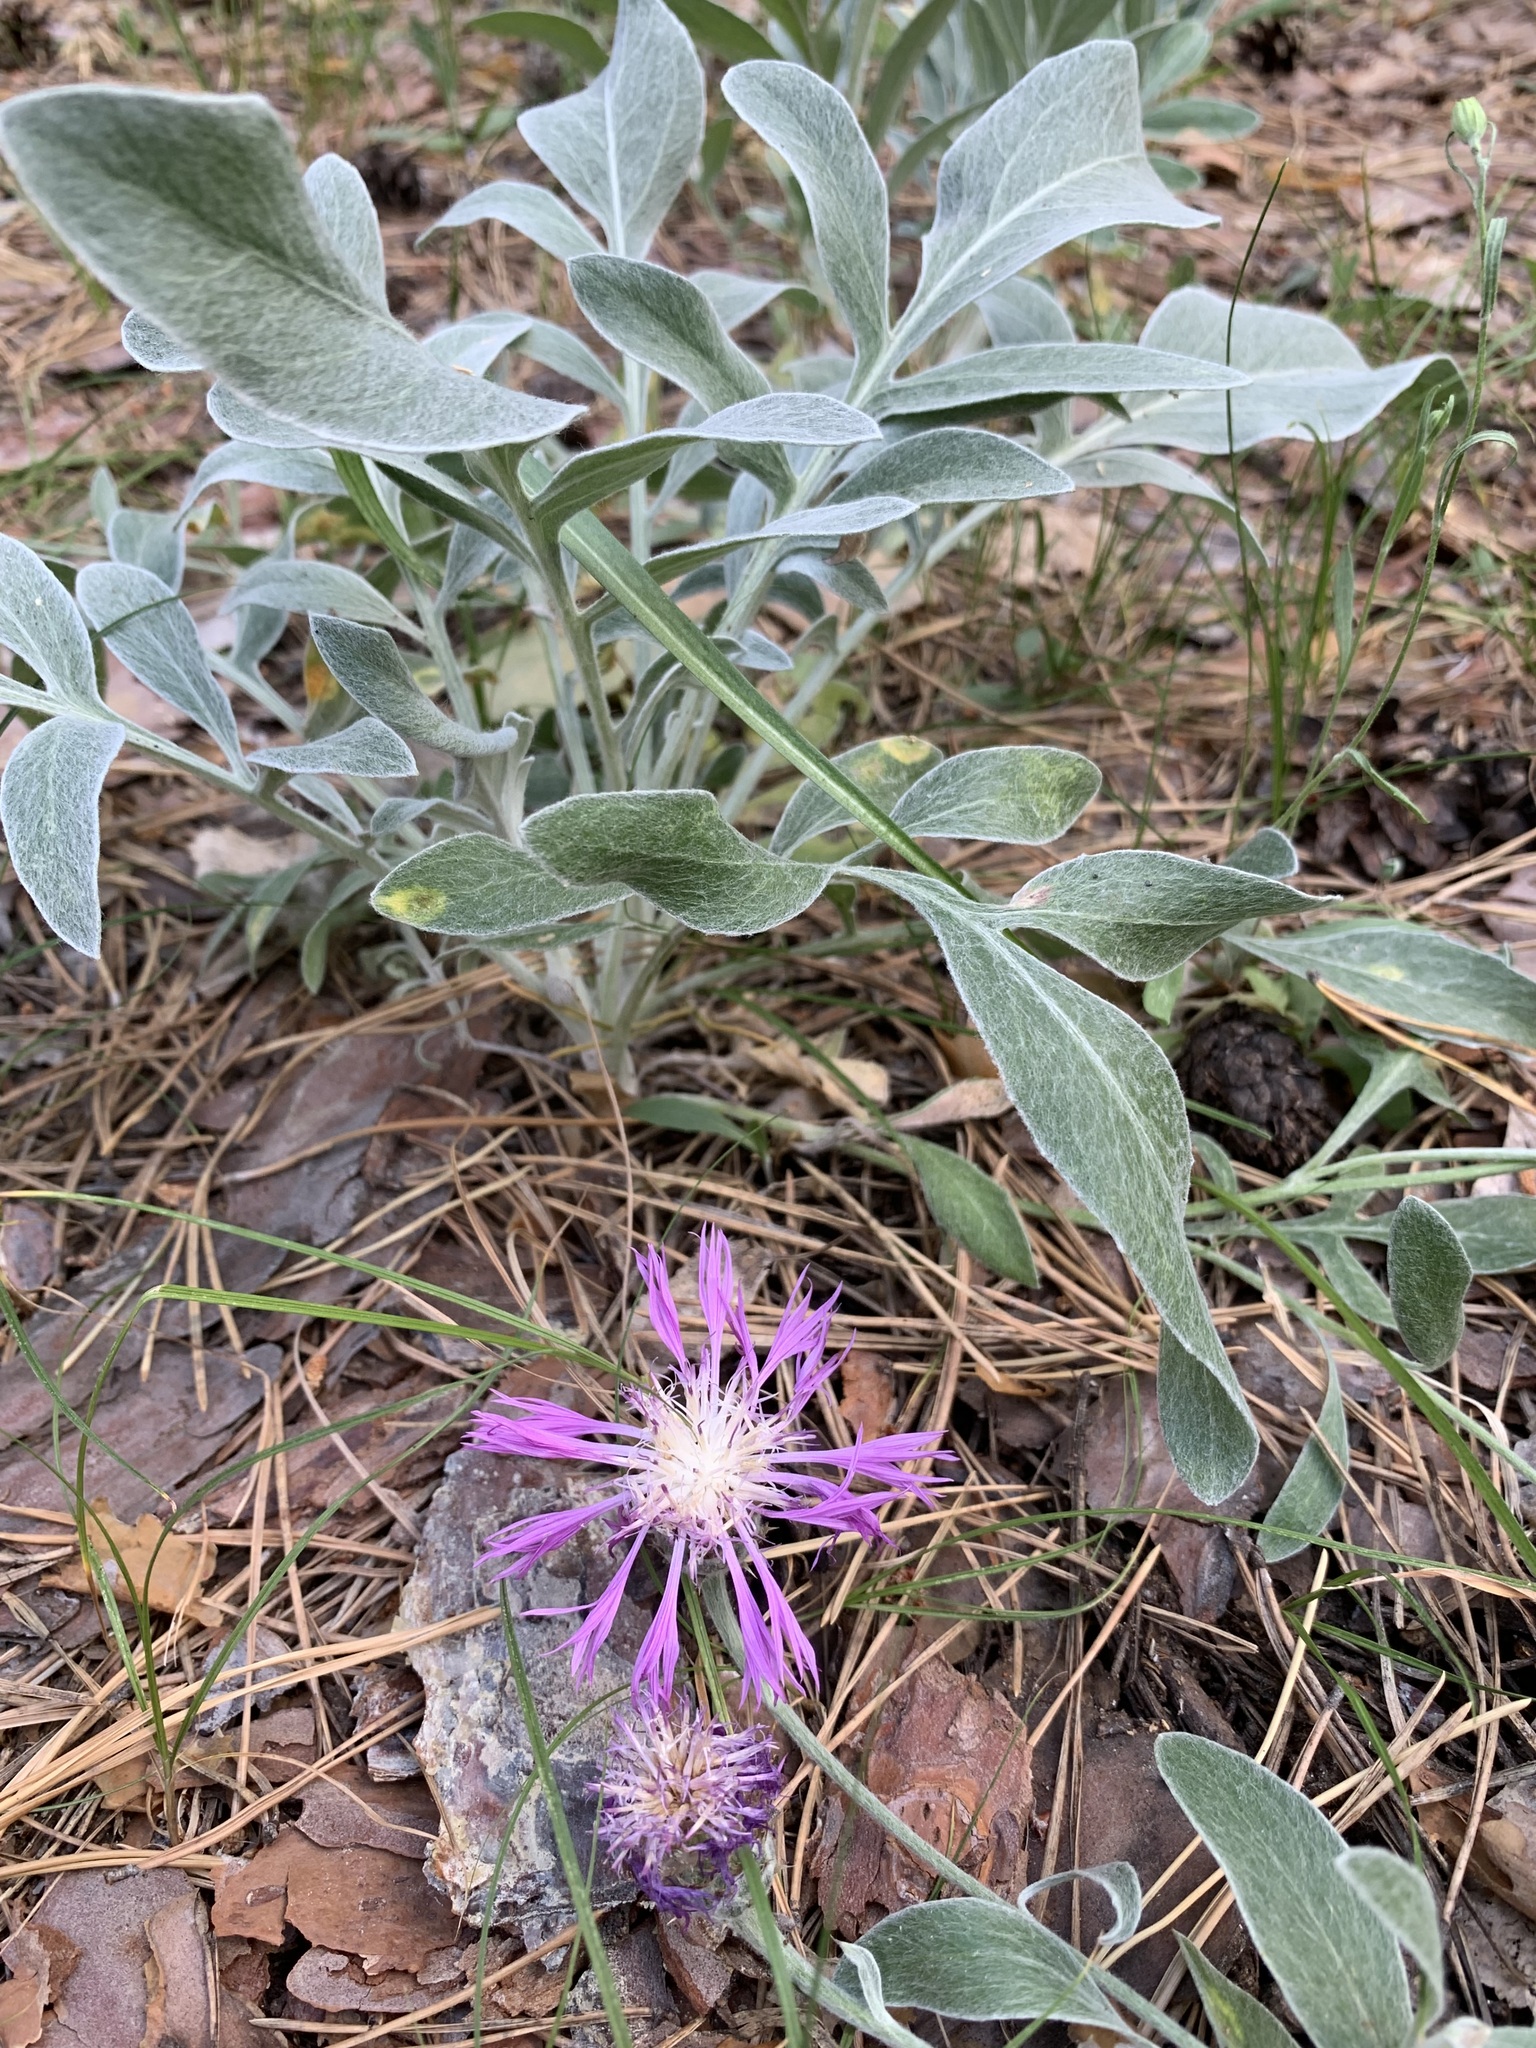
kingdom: Plantae
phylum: Tracheophyta
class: Magnoliopsida
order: Asterales
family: Asteraceae
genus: Psephellus
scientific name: Psephellus sumensis
